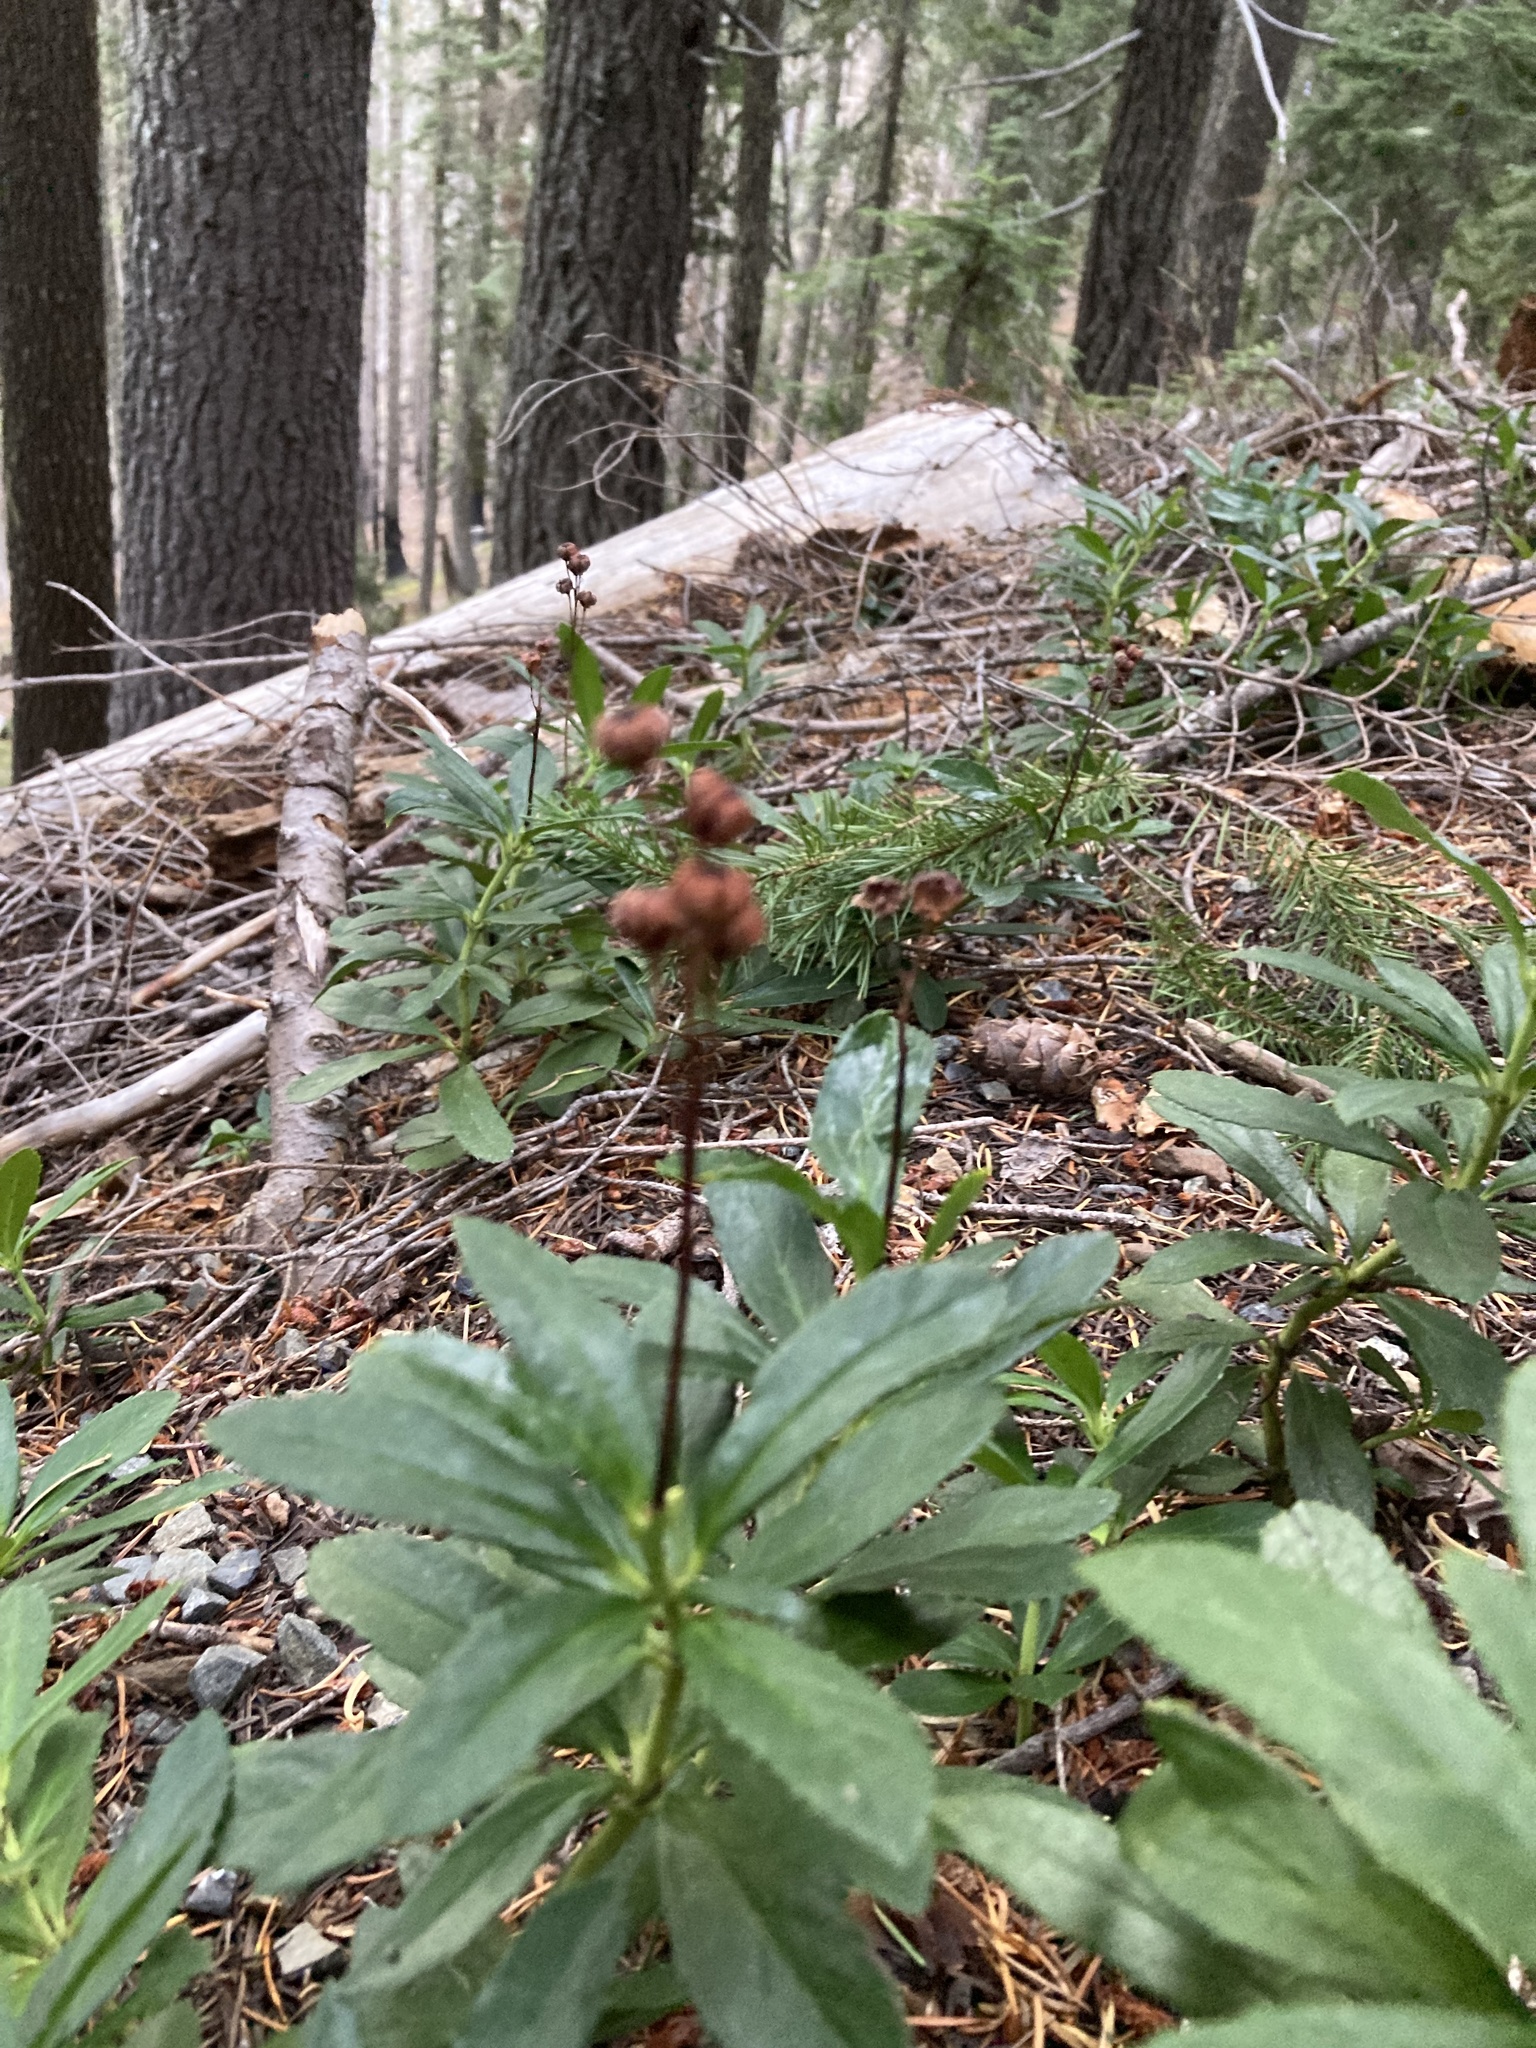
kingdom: Plantae
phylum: Tracheophyta
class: Magnoliopsida
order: Ericales
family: Ericaceae
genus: Chimaphila
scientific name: Chimaphila umbellata
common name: Pipsissewa
